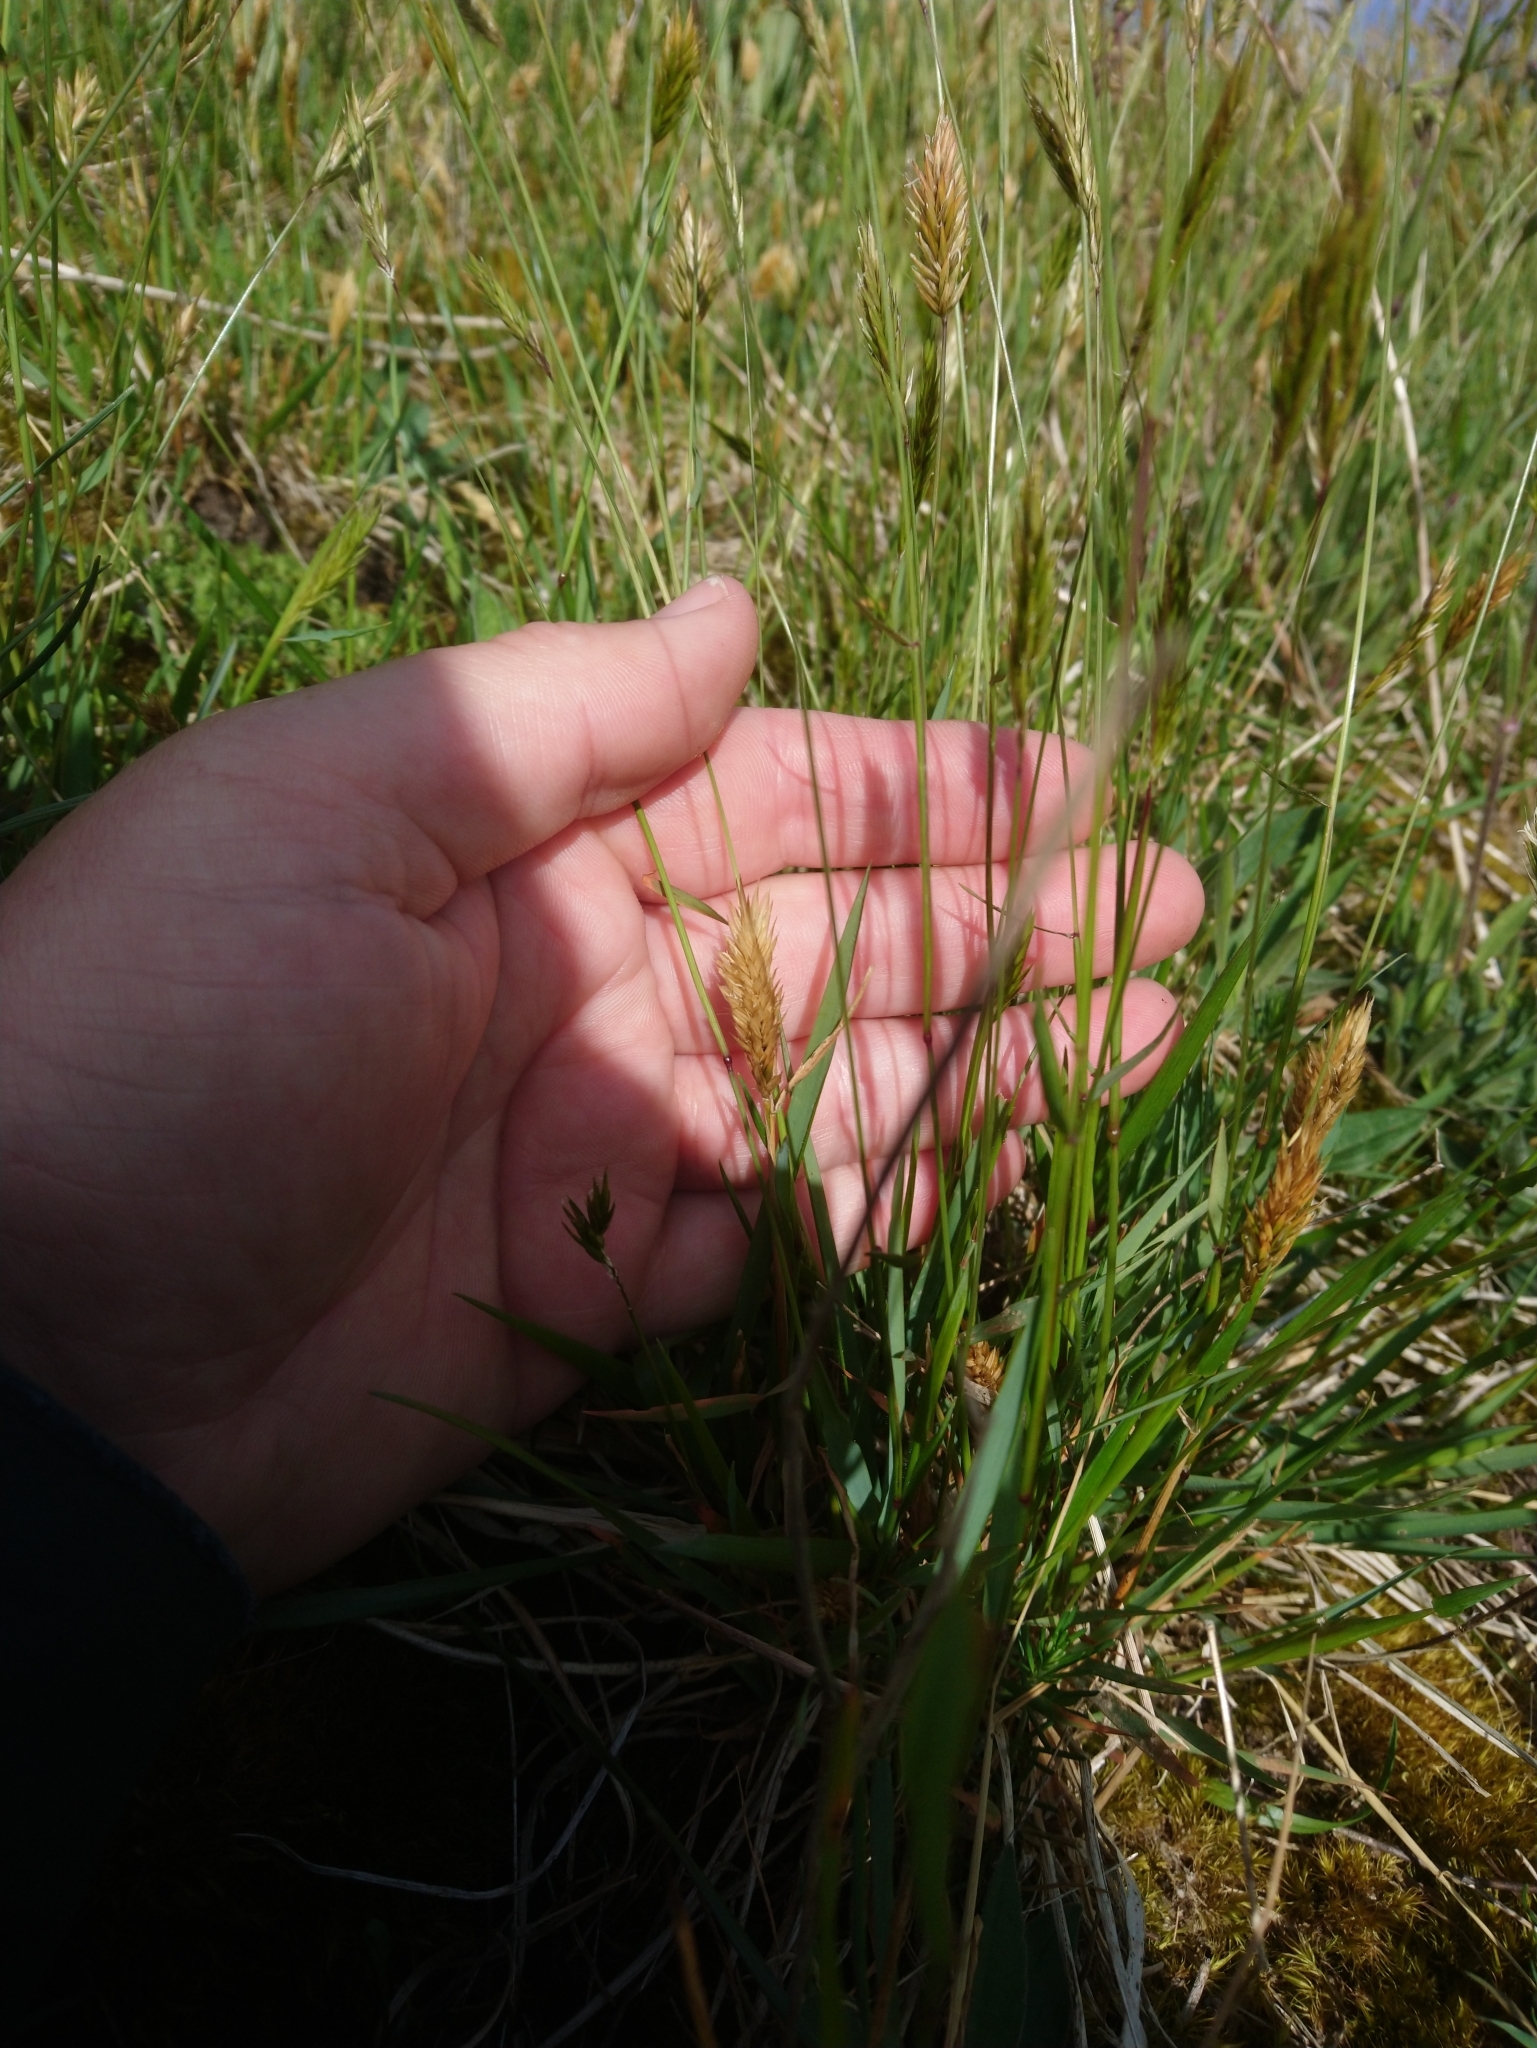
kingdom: Plantae
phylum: Tracheophyta
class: Liliopsida
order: Poales
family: Poaceae
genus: Anthoxanthum
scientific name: Anthoxanthum odoratum
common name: Sweet vernalgrass
